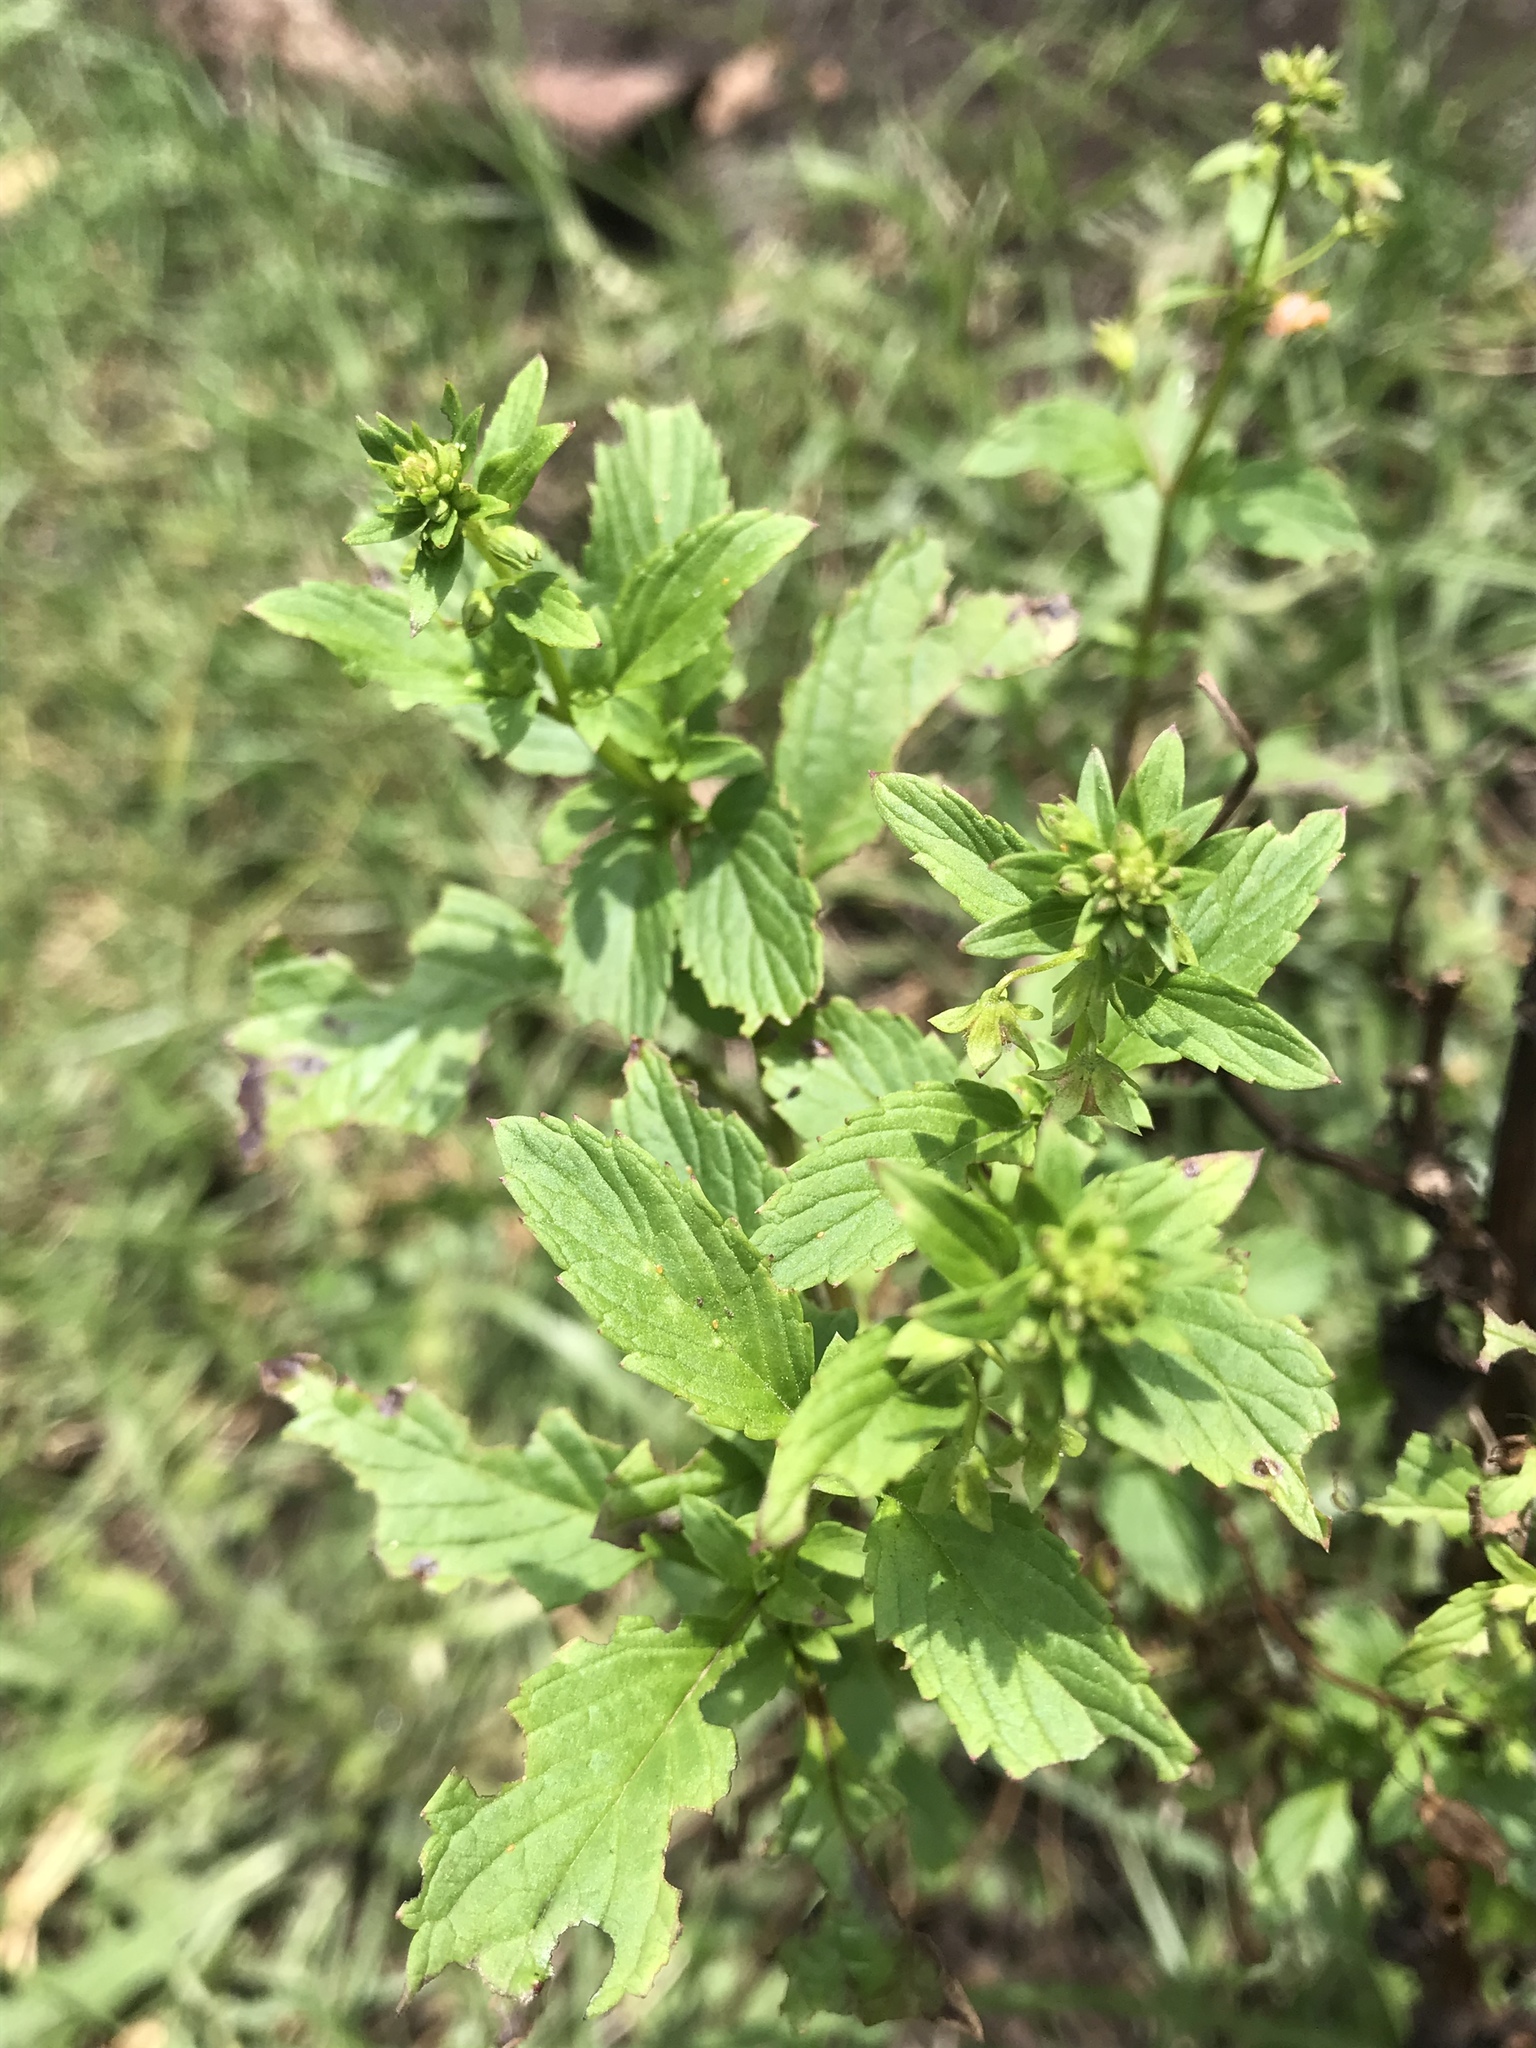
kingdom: Plantae
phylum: Tracheophyta
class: Magnoliopsida
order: Lamiales
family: Scrophulariaceae
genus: Alonsoa
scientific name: Alonsoa meridionalis
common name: Maskflower
